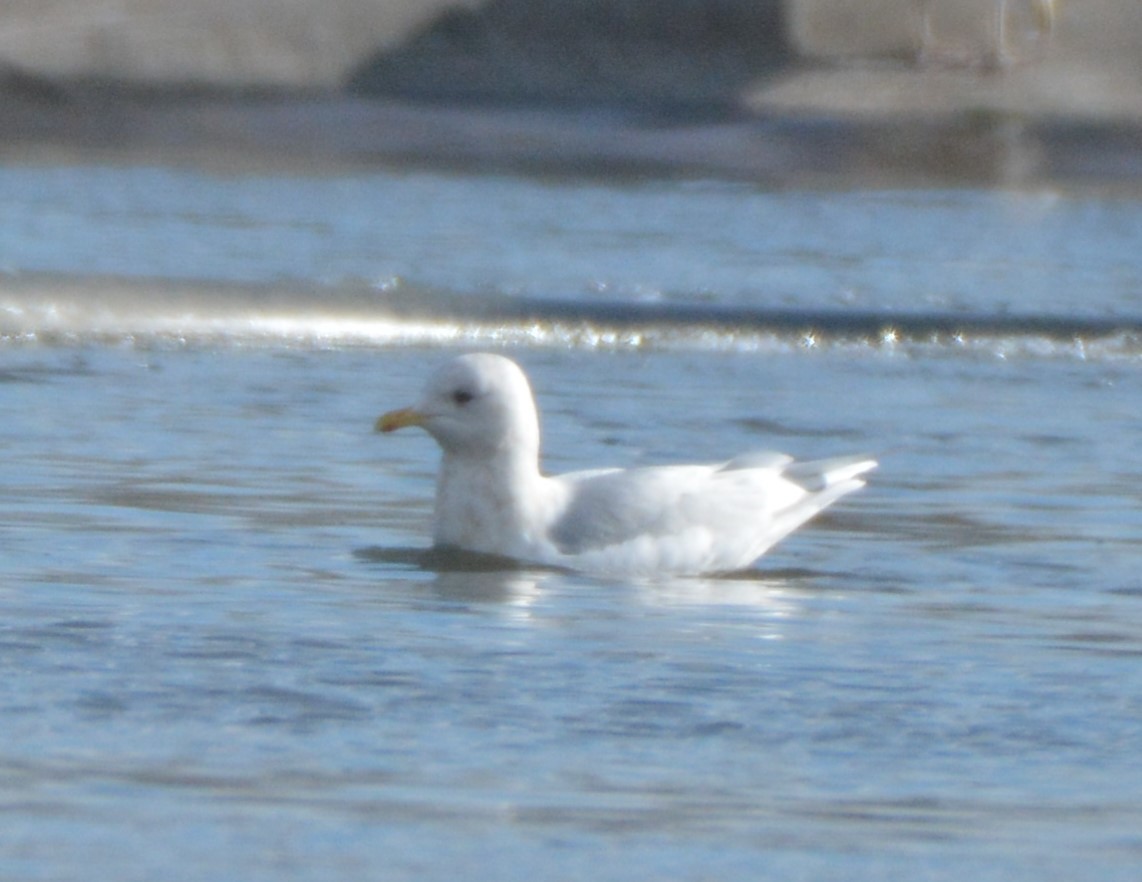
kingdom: Animalia
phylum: Chordata
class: Aves
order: Charadriiformes
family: Laridae
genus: Larus
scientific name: Larus glaucoides
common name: Iceland gull
